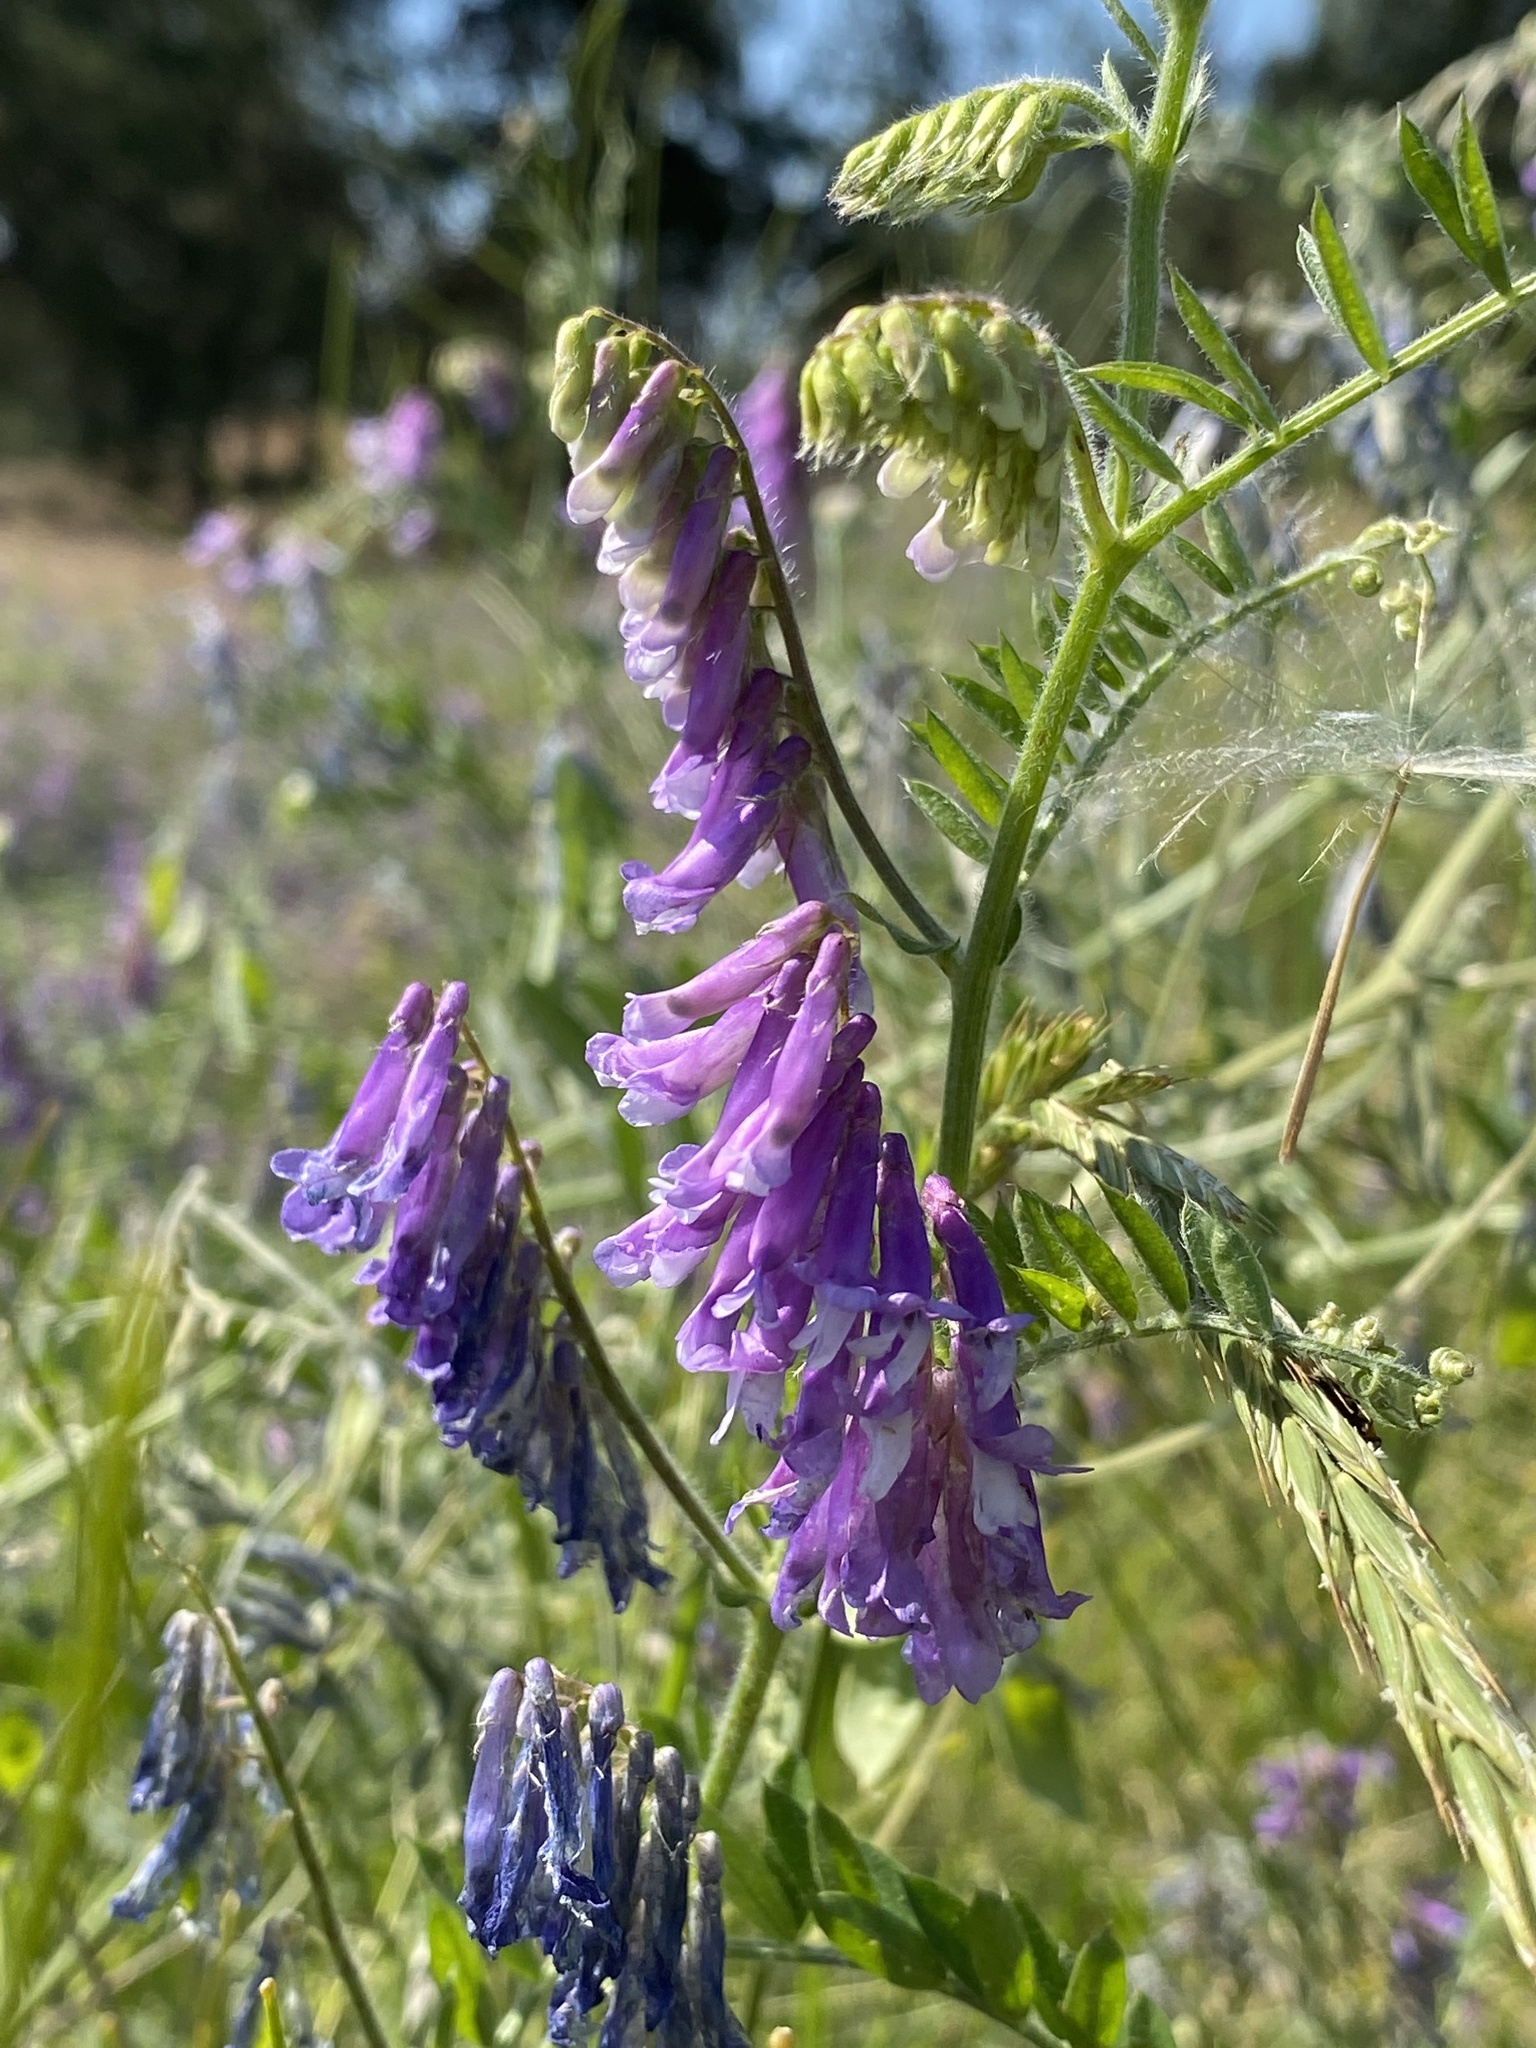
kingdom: Plantae
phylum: Tracheophyta
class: Magnoliopsida
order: Fabales
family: Fabaceae
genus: Vicia
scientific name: Vicia villosa
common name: Fodder vetch
